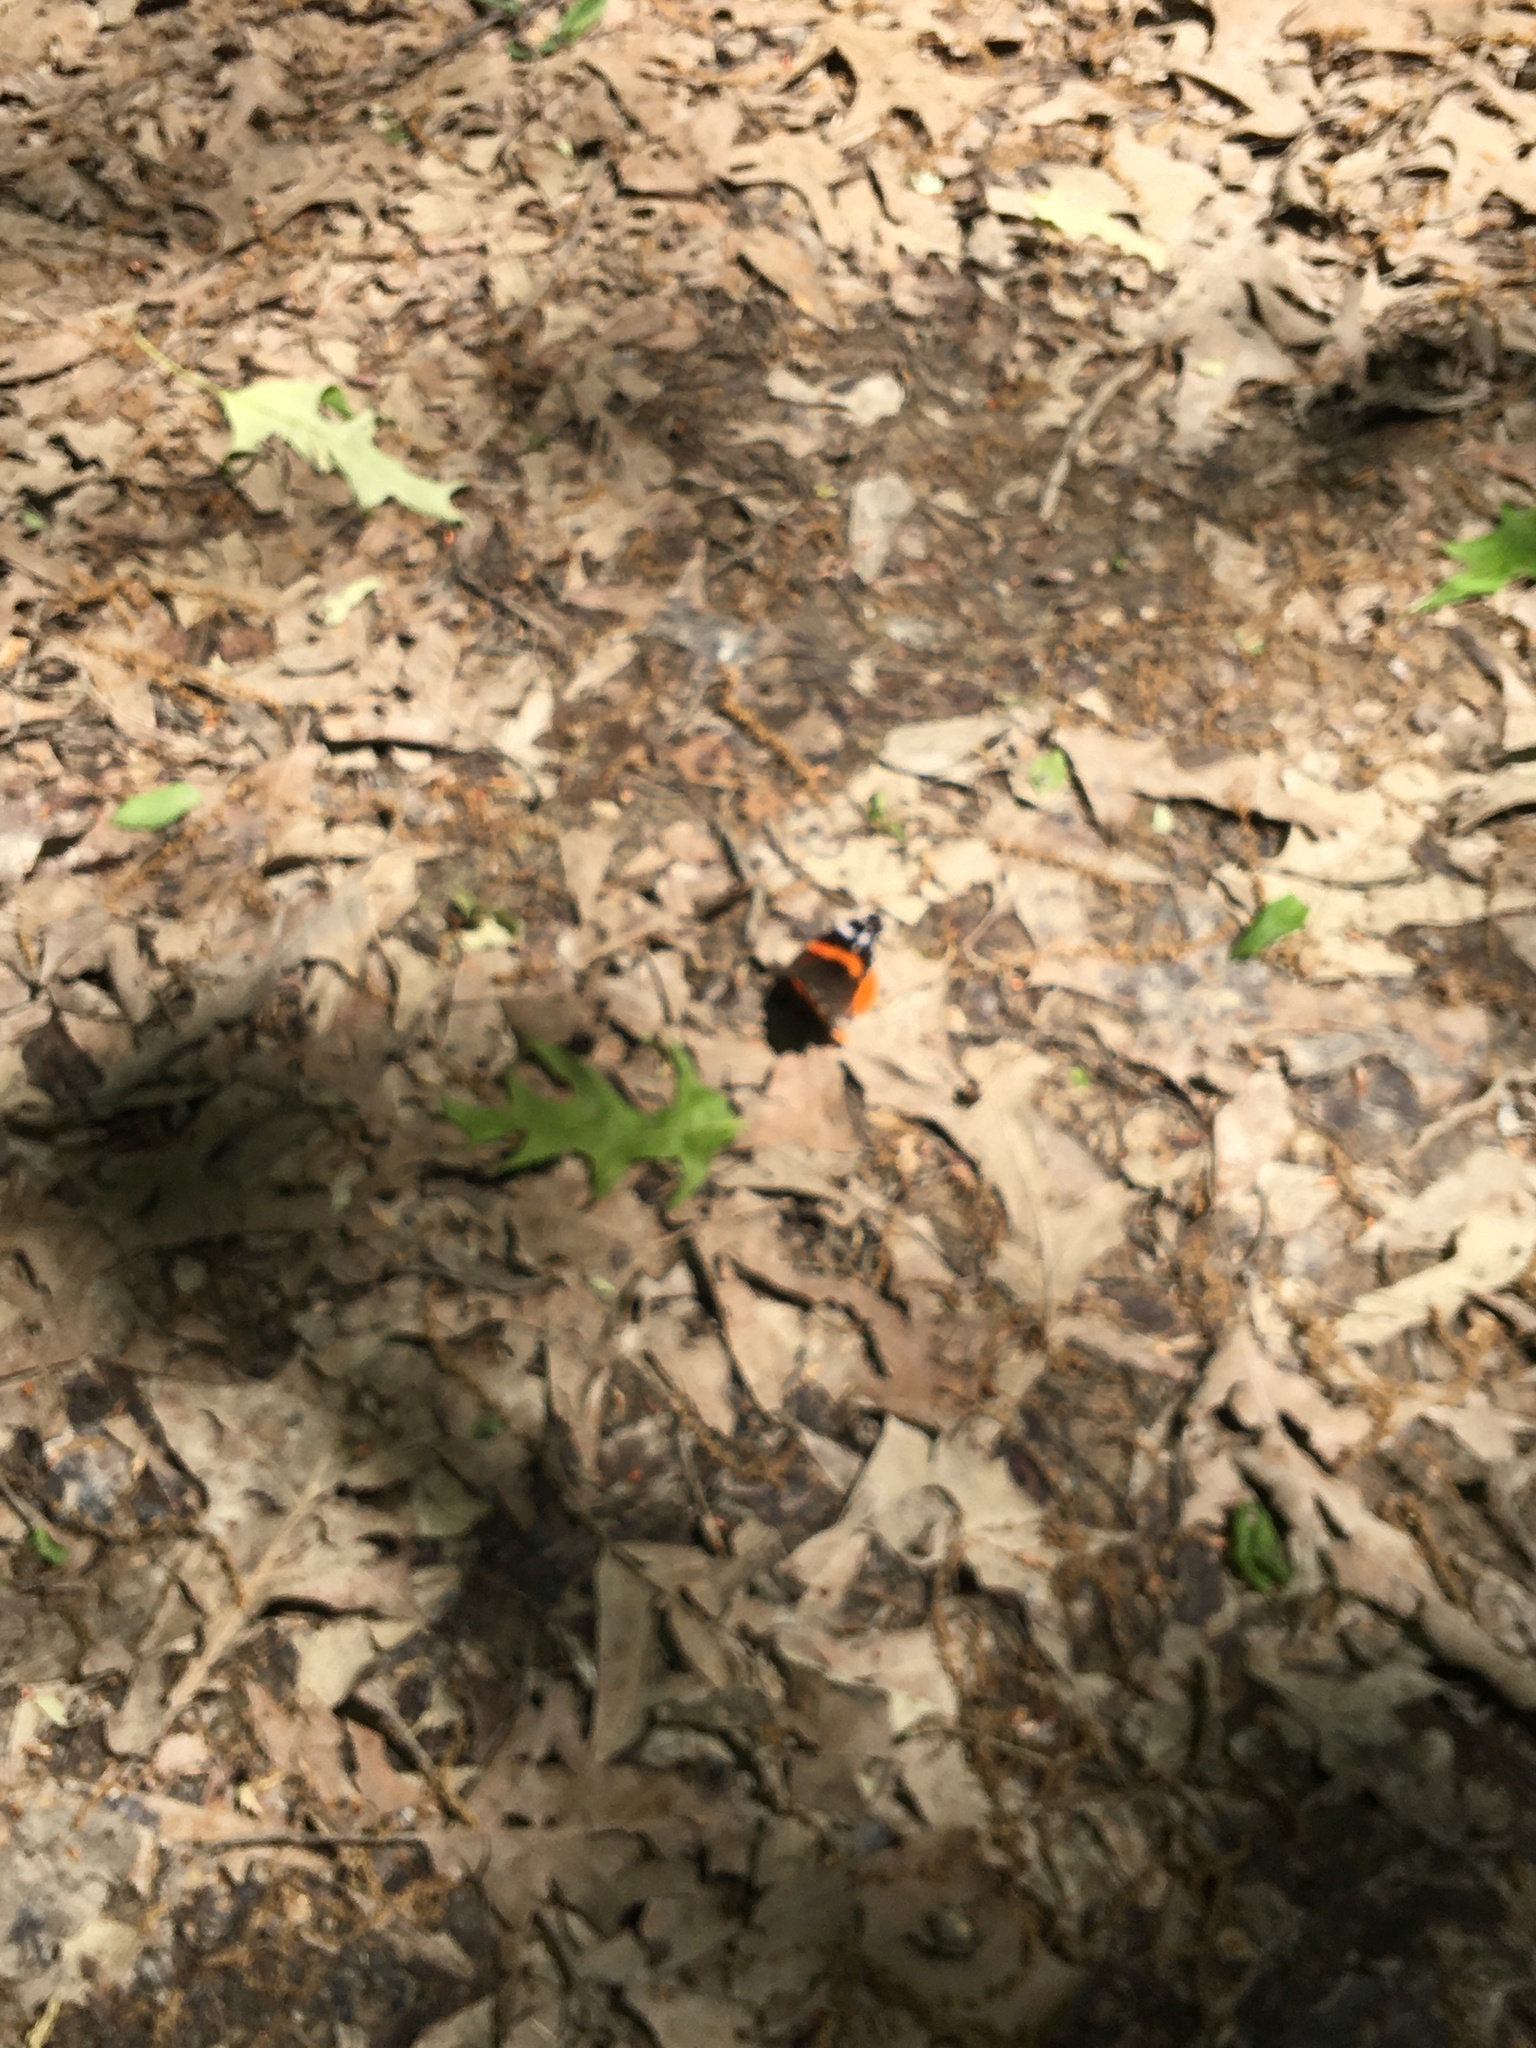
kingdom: Animalia
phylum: Arthropoda
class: Insecta
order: Lepidoptera
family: Nymphalidae
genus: Vanessa
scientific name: Vanessa atalanta
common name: Red admiral
